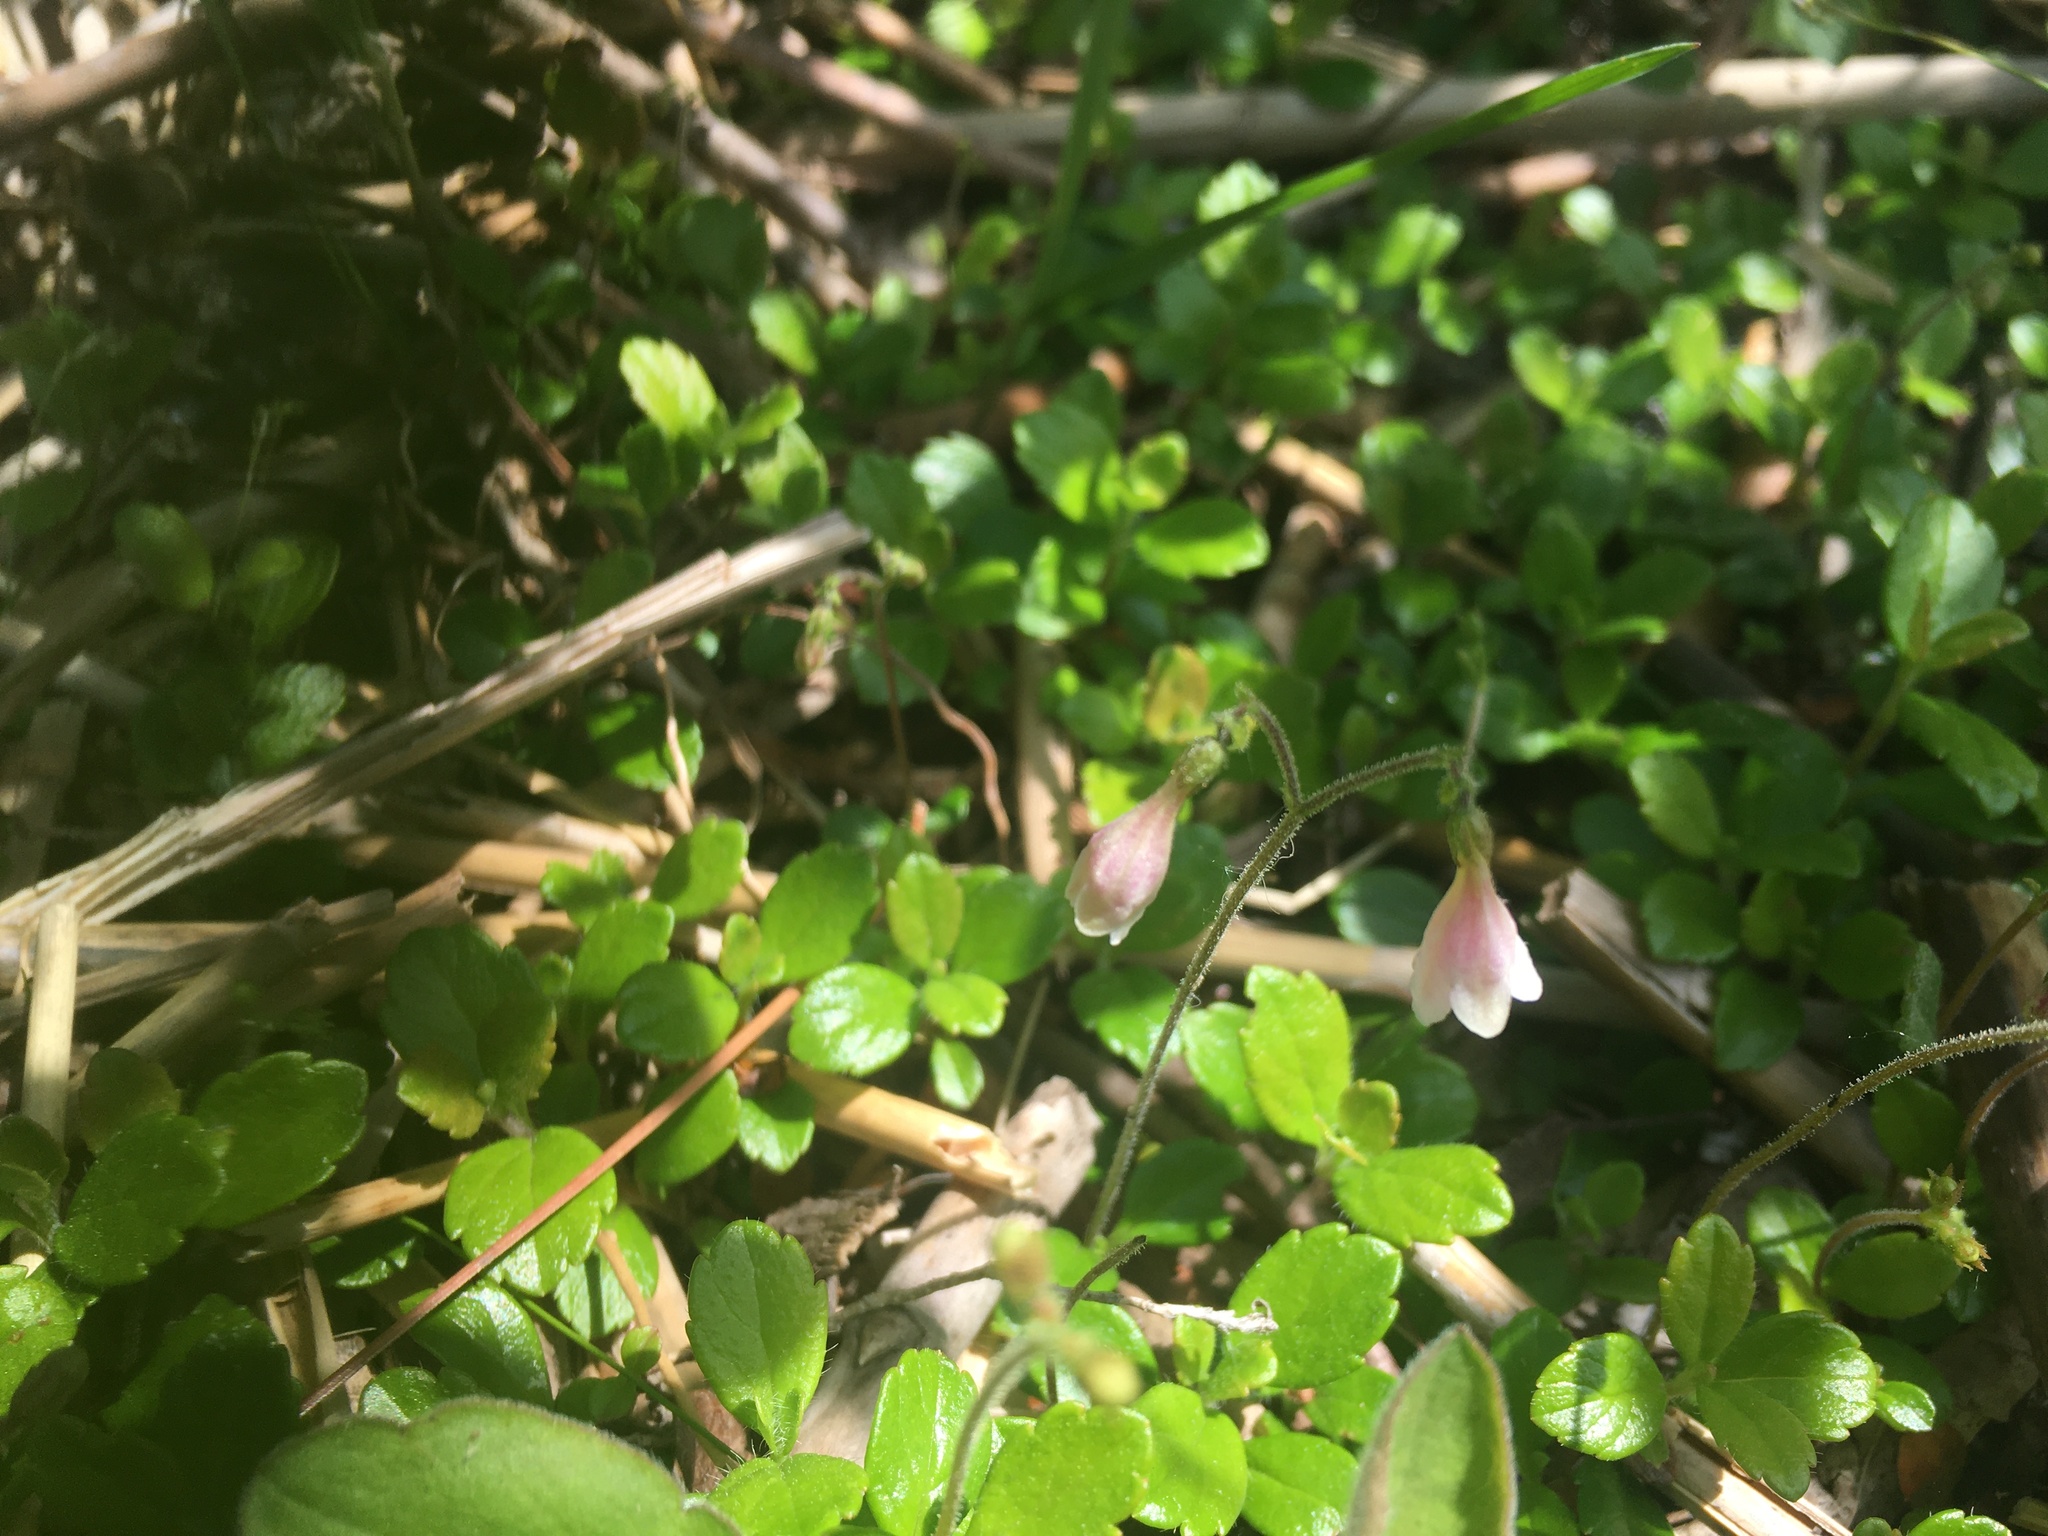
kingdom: Plantae
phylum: Tracheophyta
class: Magnoliopsida
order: Dipsacales
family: Caprifoliaceae
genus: Linnaea
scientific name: Linnaea borealis
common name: Twinflower
